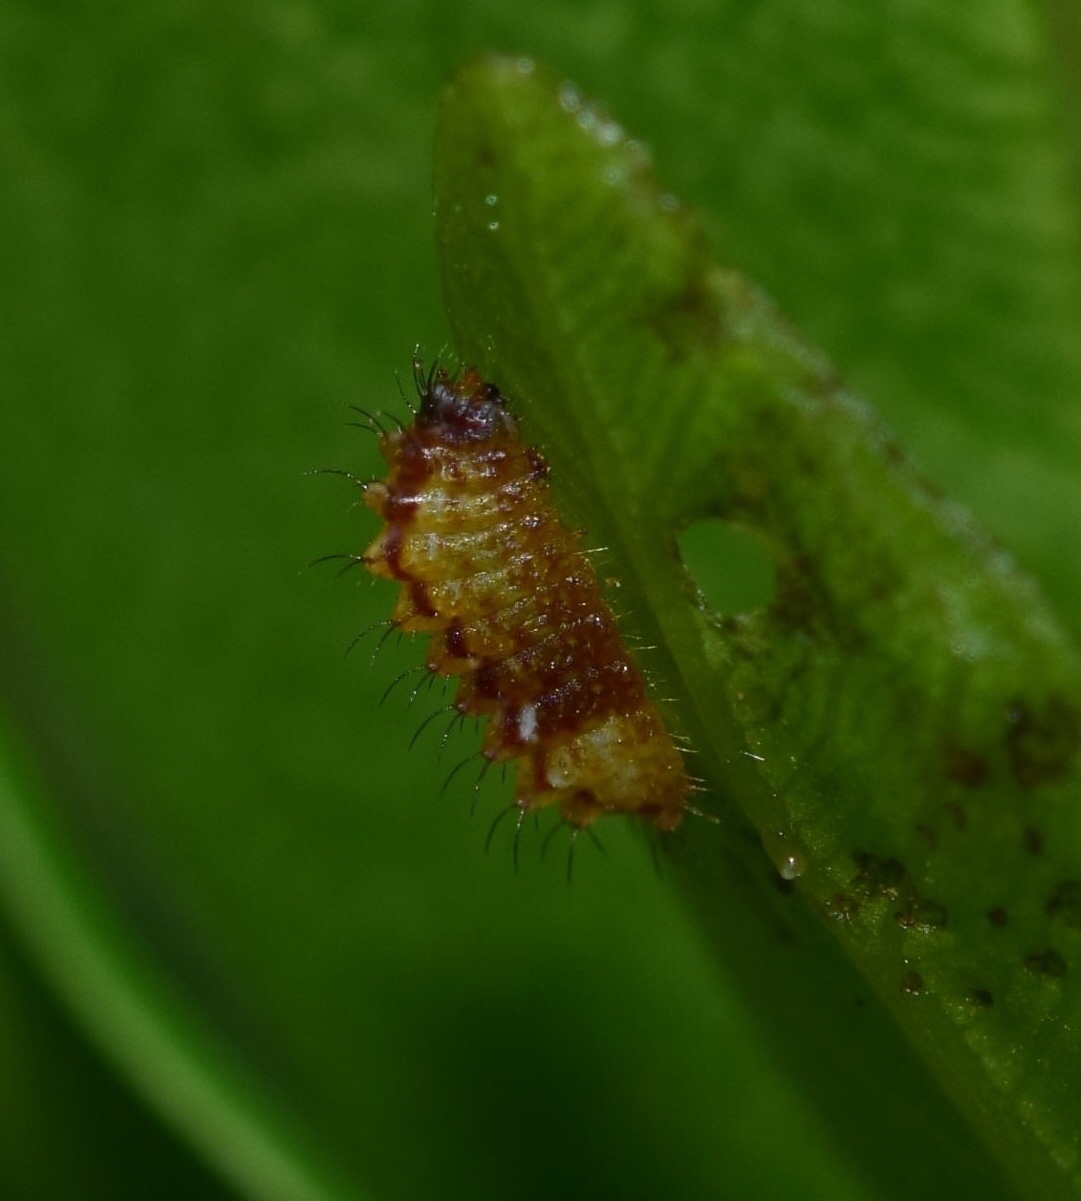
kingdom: Animalia
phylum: Arthropoda
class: Insecta
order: Lepidoptera
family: Lycaenidae
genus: Myrina
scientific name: Myrina silenus
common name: Amber fig-tree blue
